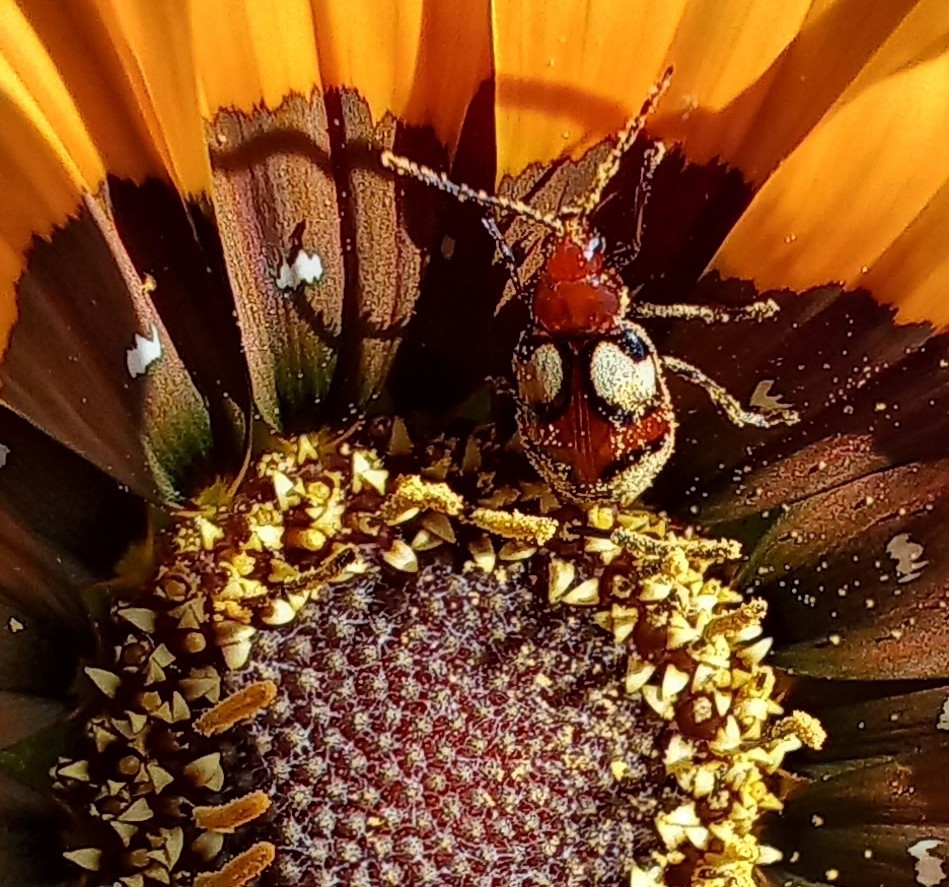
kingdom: Animalia
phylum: Arthropoda
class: Insecta
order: Coleoptera
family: Chrysomelidae
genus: Monolepta
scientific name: Monolepta
